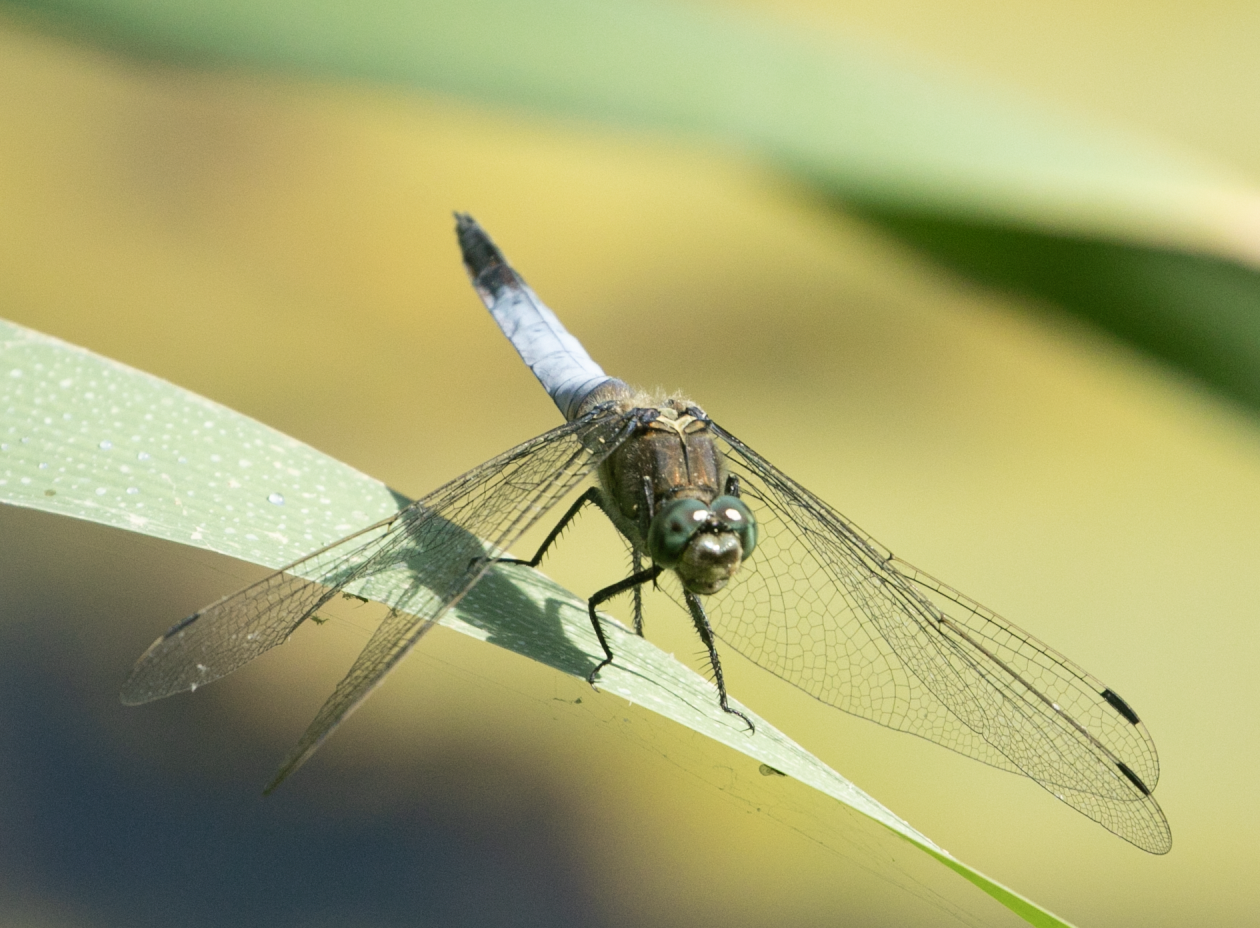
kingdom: Animalia
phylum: Arthropoda
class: Insecta
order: Odonata
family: Libellulidae
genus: Orthetrum
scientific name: Orthetrum cancellatum
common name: Black-tailed skimmer
